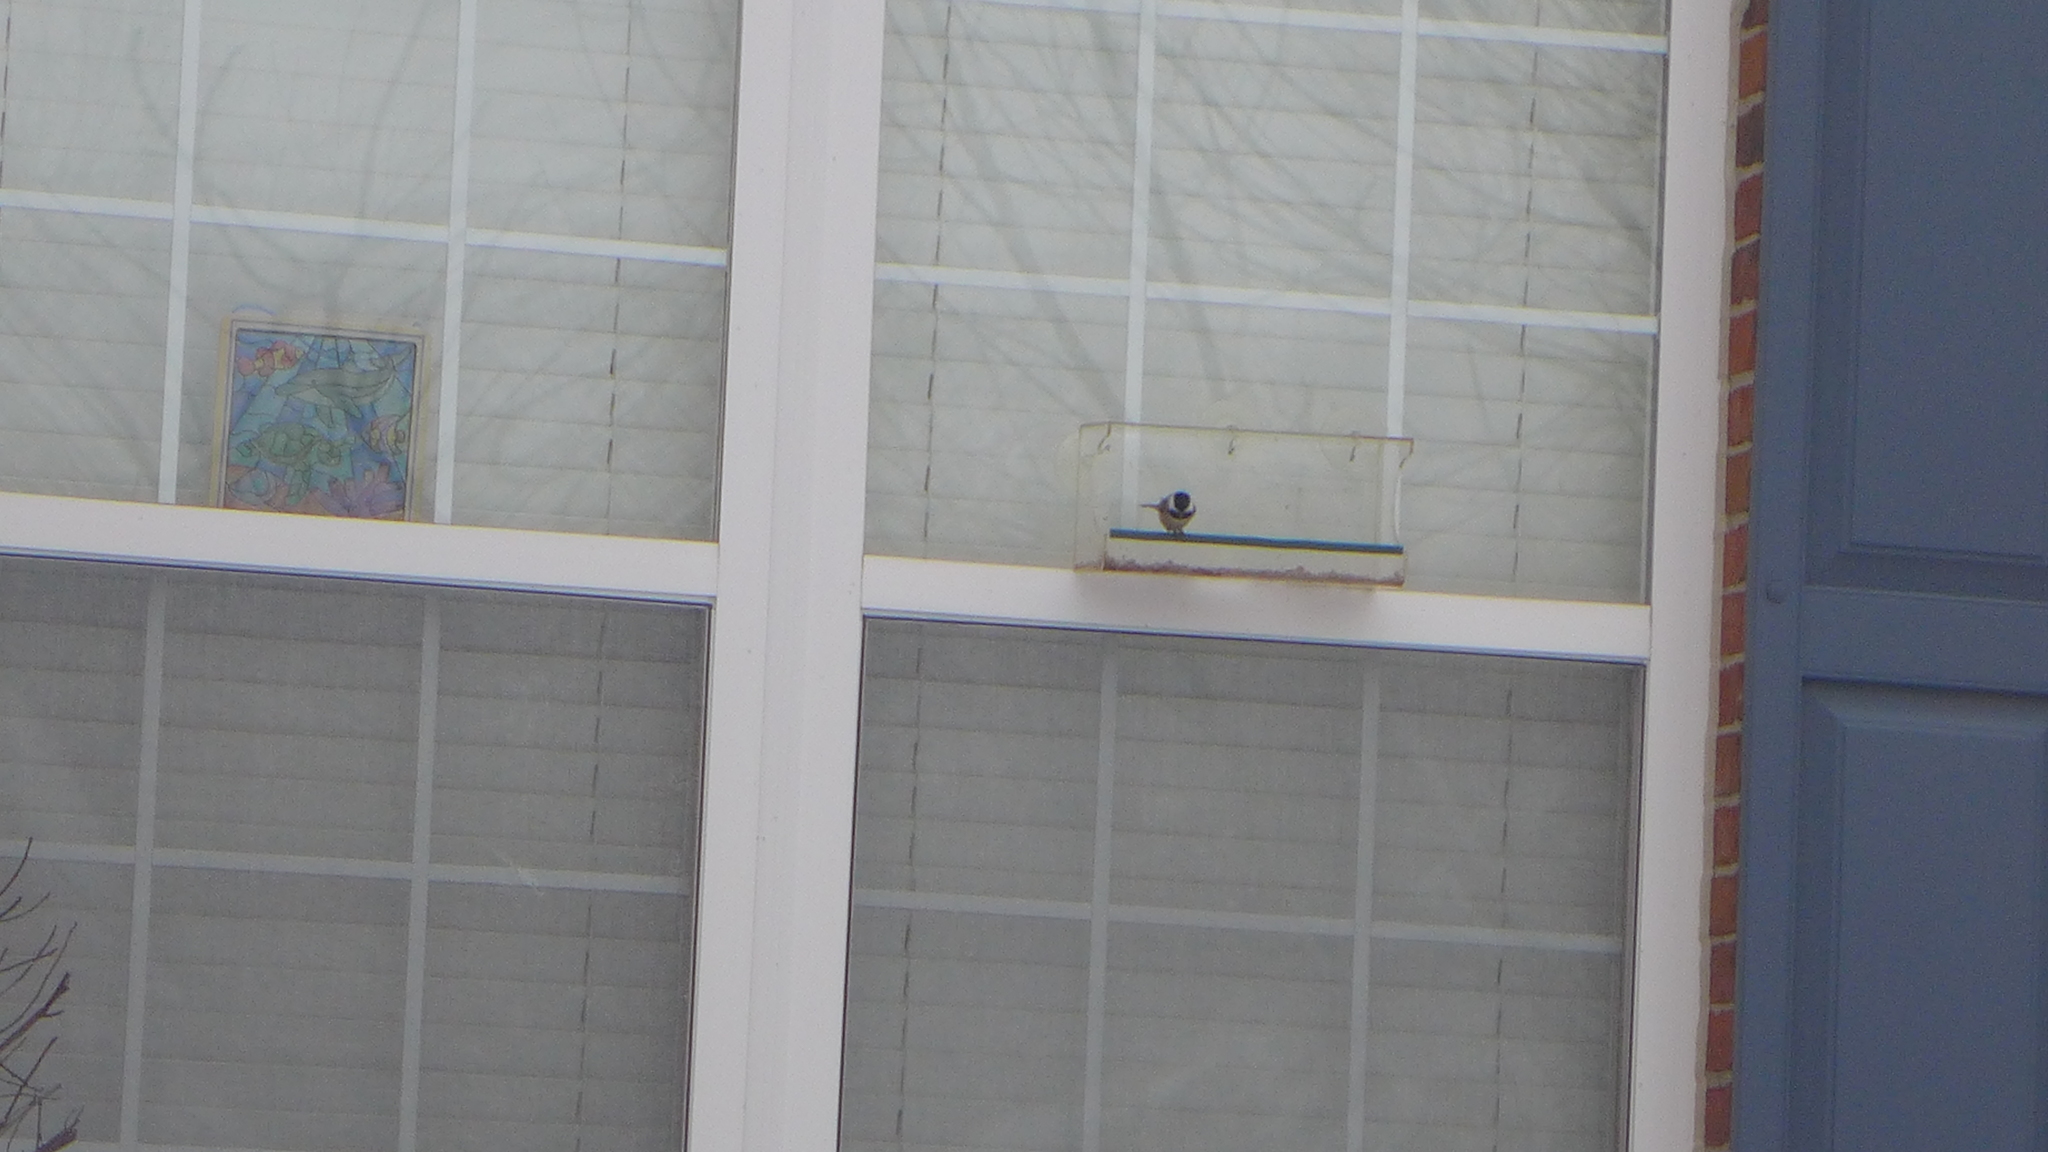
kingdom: Animalia
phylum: Chordata
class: Aves
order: Passeriformes
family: Paridae
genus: Poecile
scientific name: Poecile carolinensis
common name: Carolina chickadee
